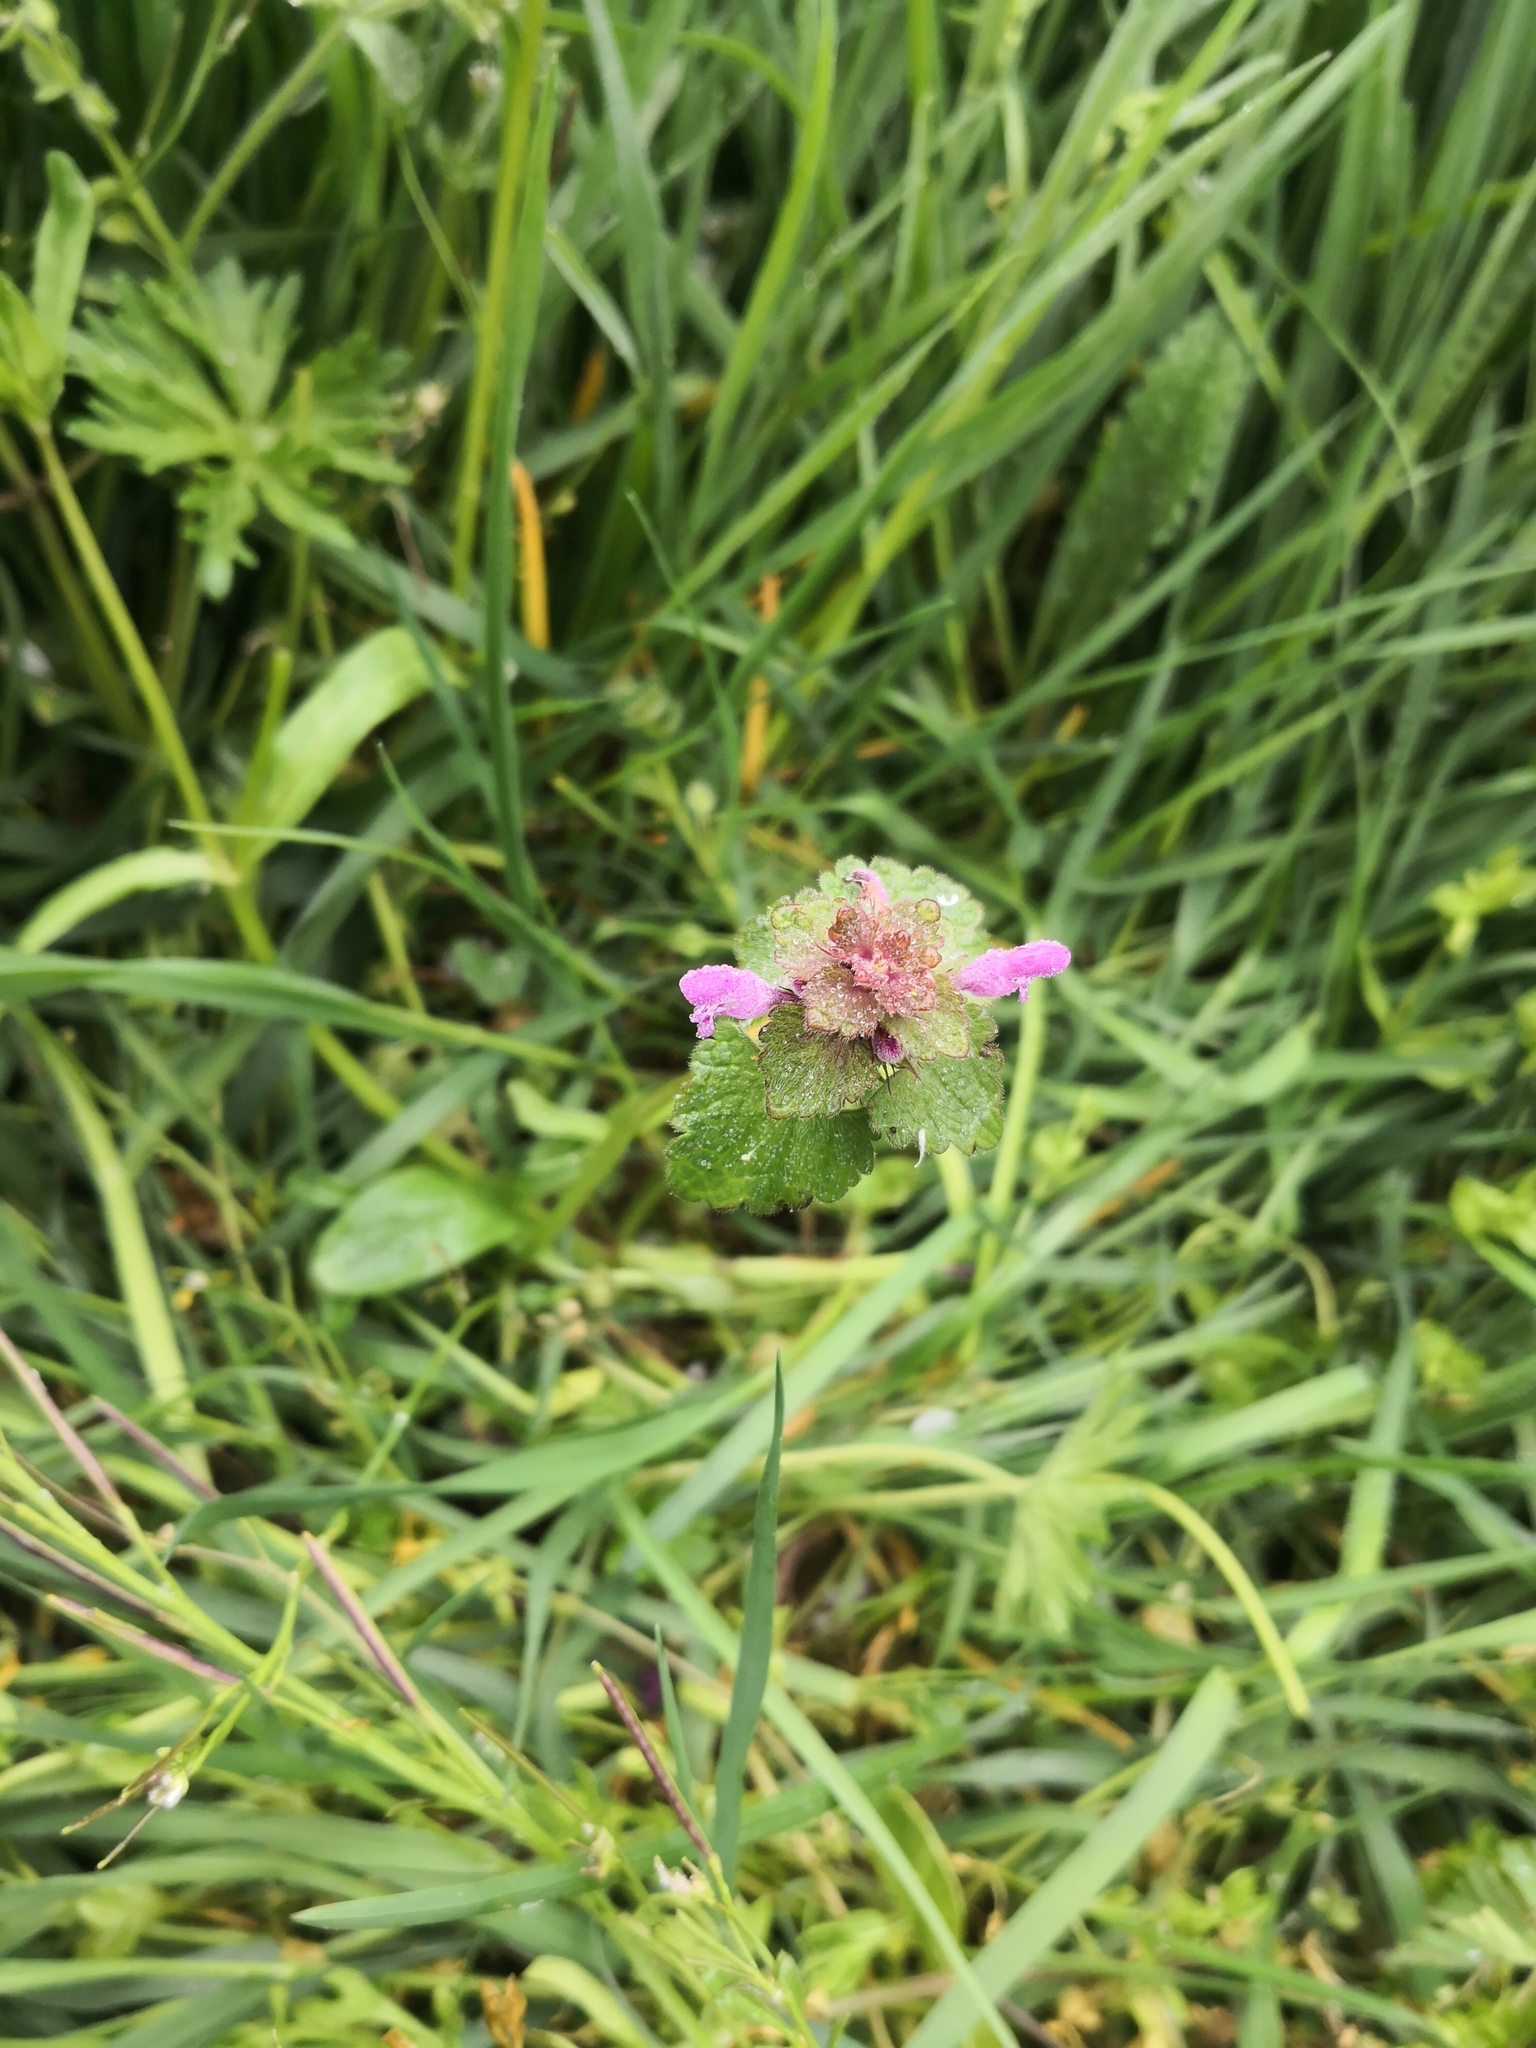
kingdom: Plantae
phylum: Tracheophyta
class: Magnoliopsida
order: Lamiales
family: Lamiaceae
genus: Lamium
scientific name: Lamium purpureum
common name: Red dead-nettle
